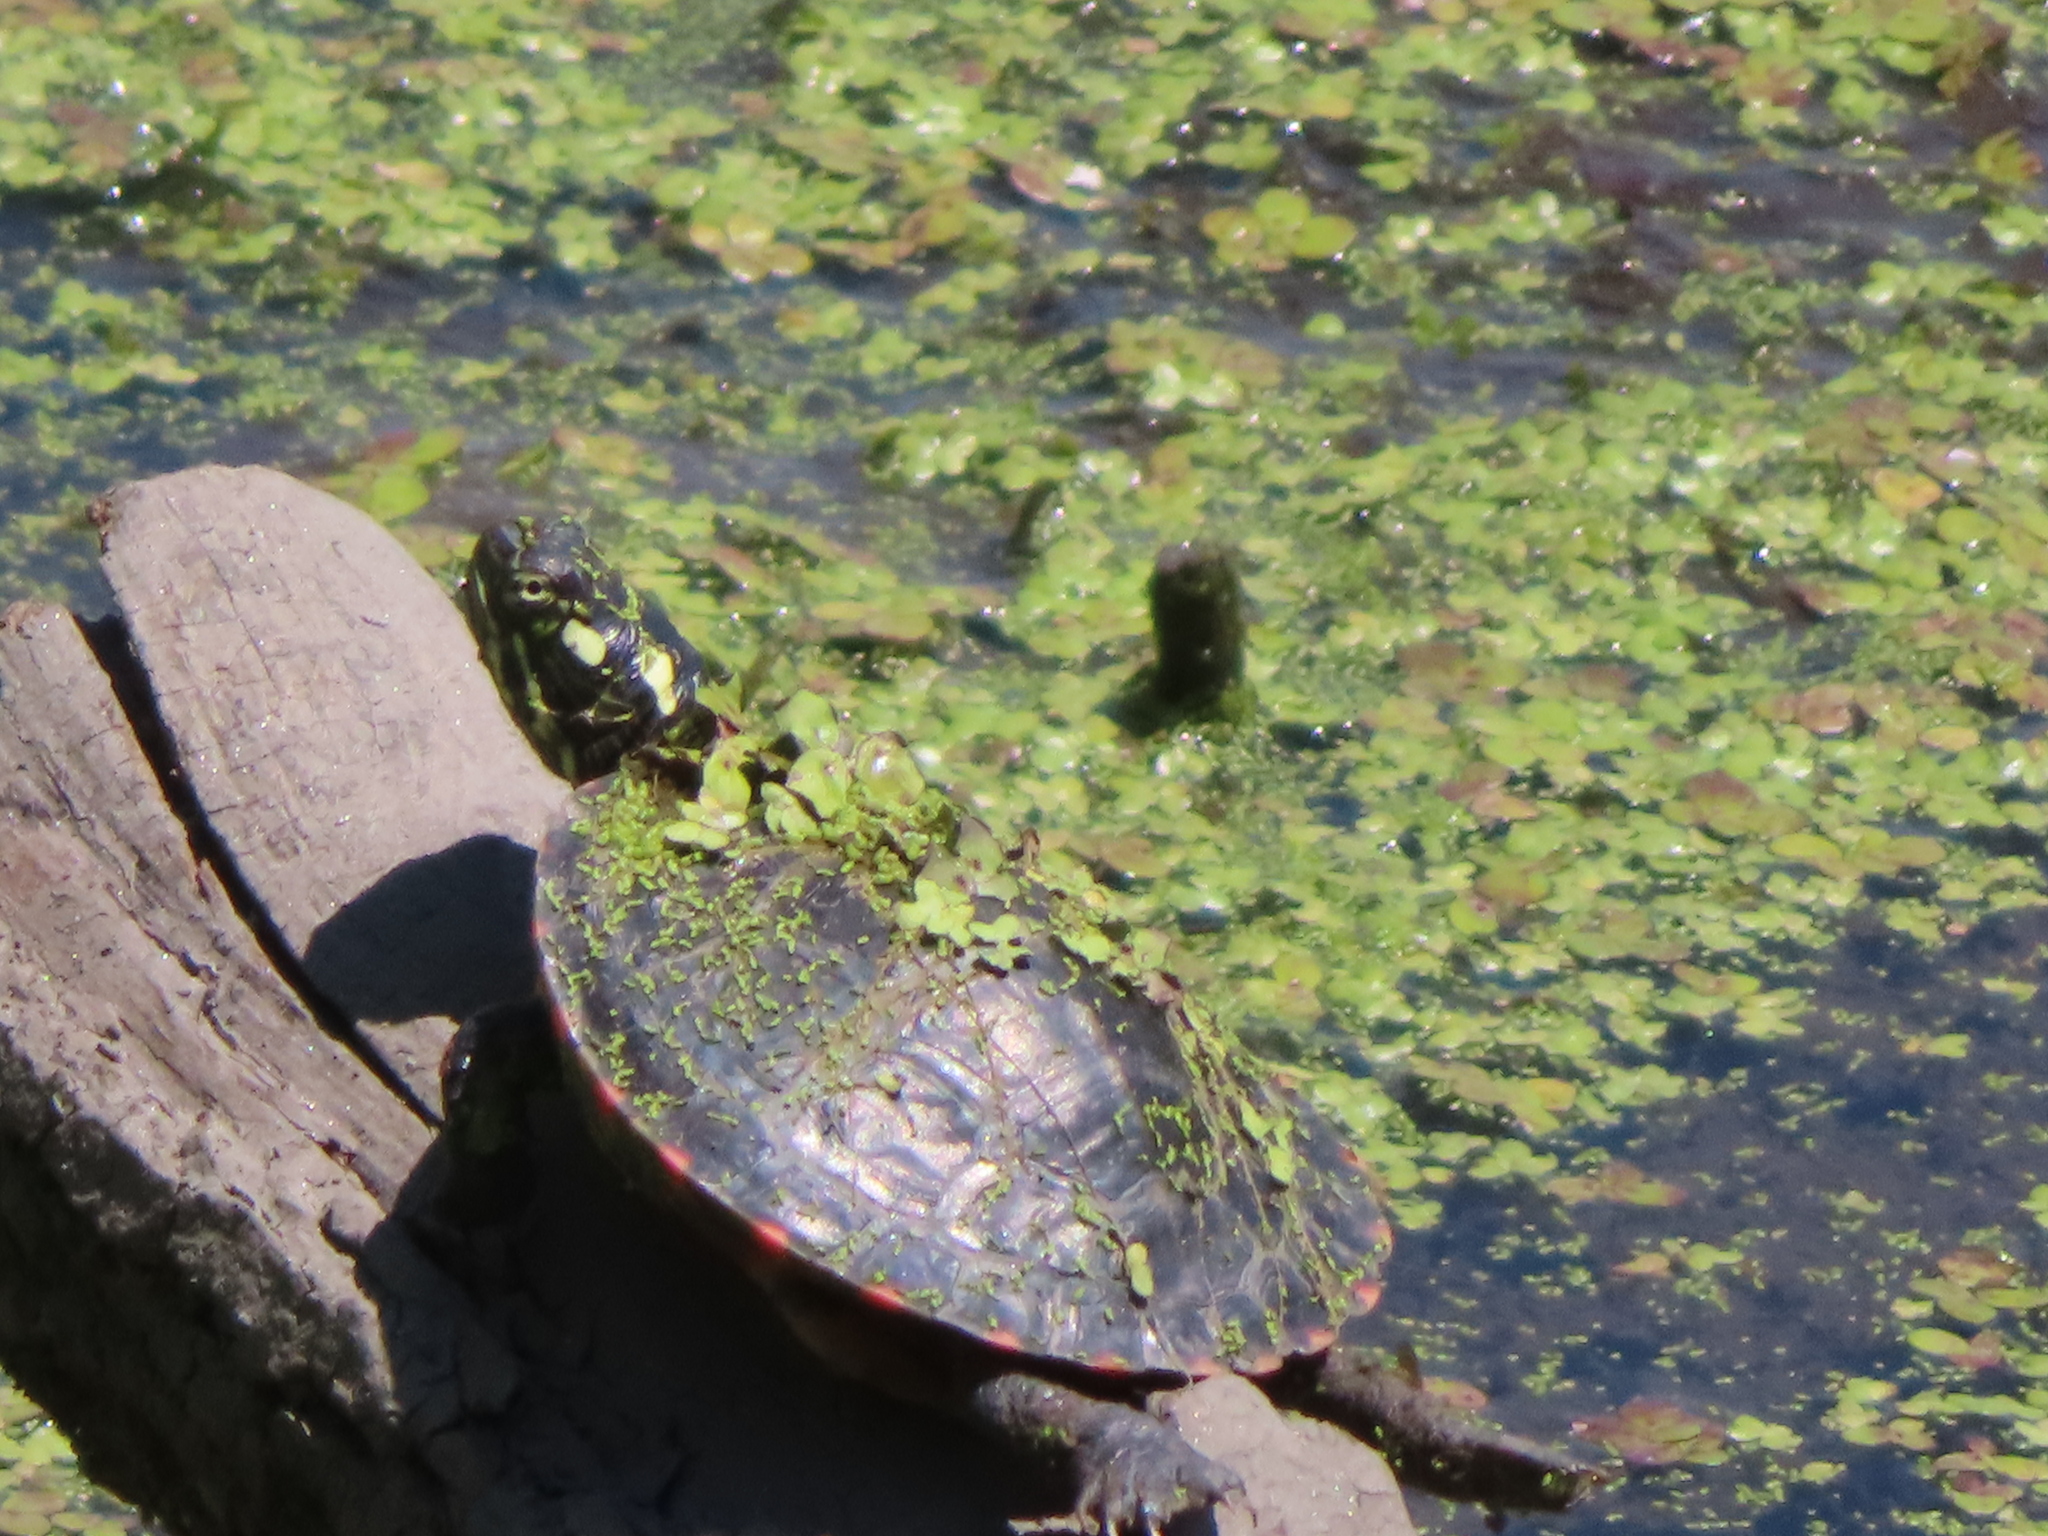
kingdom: Animalia
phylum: Chordata
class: Testudines
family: Emydidae
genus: Chrysemys
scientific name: Chrysemys picta
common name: Painted turtle
